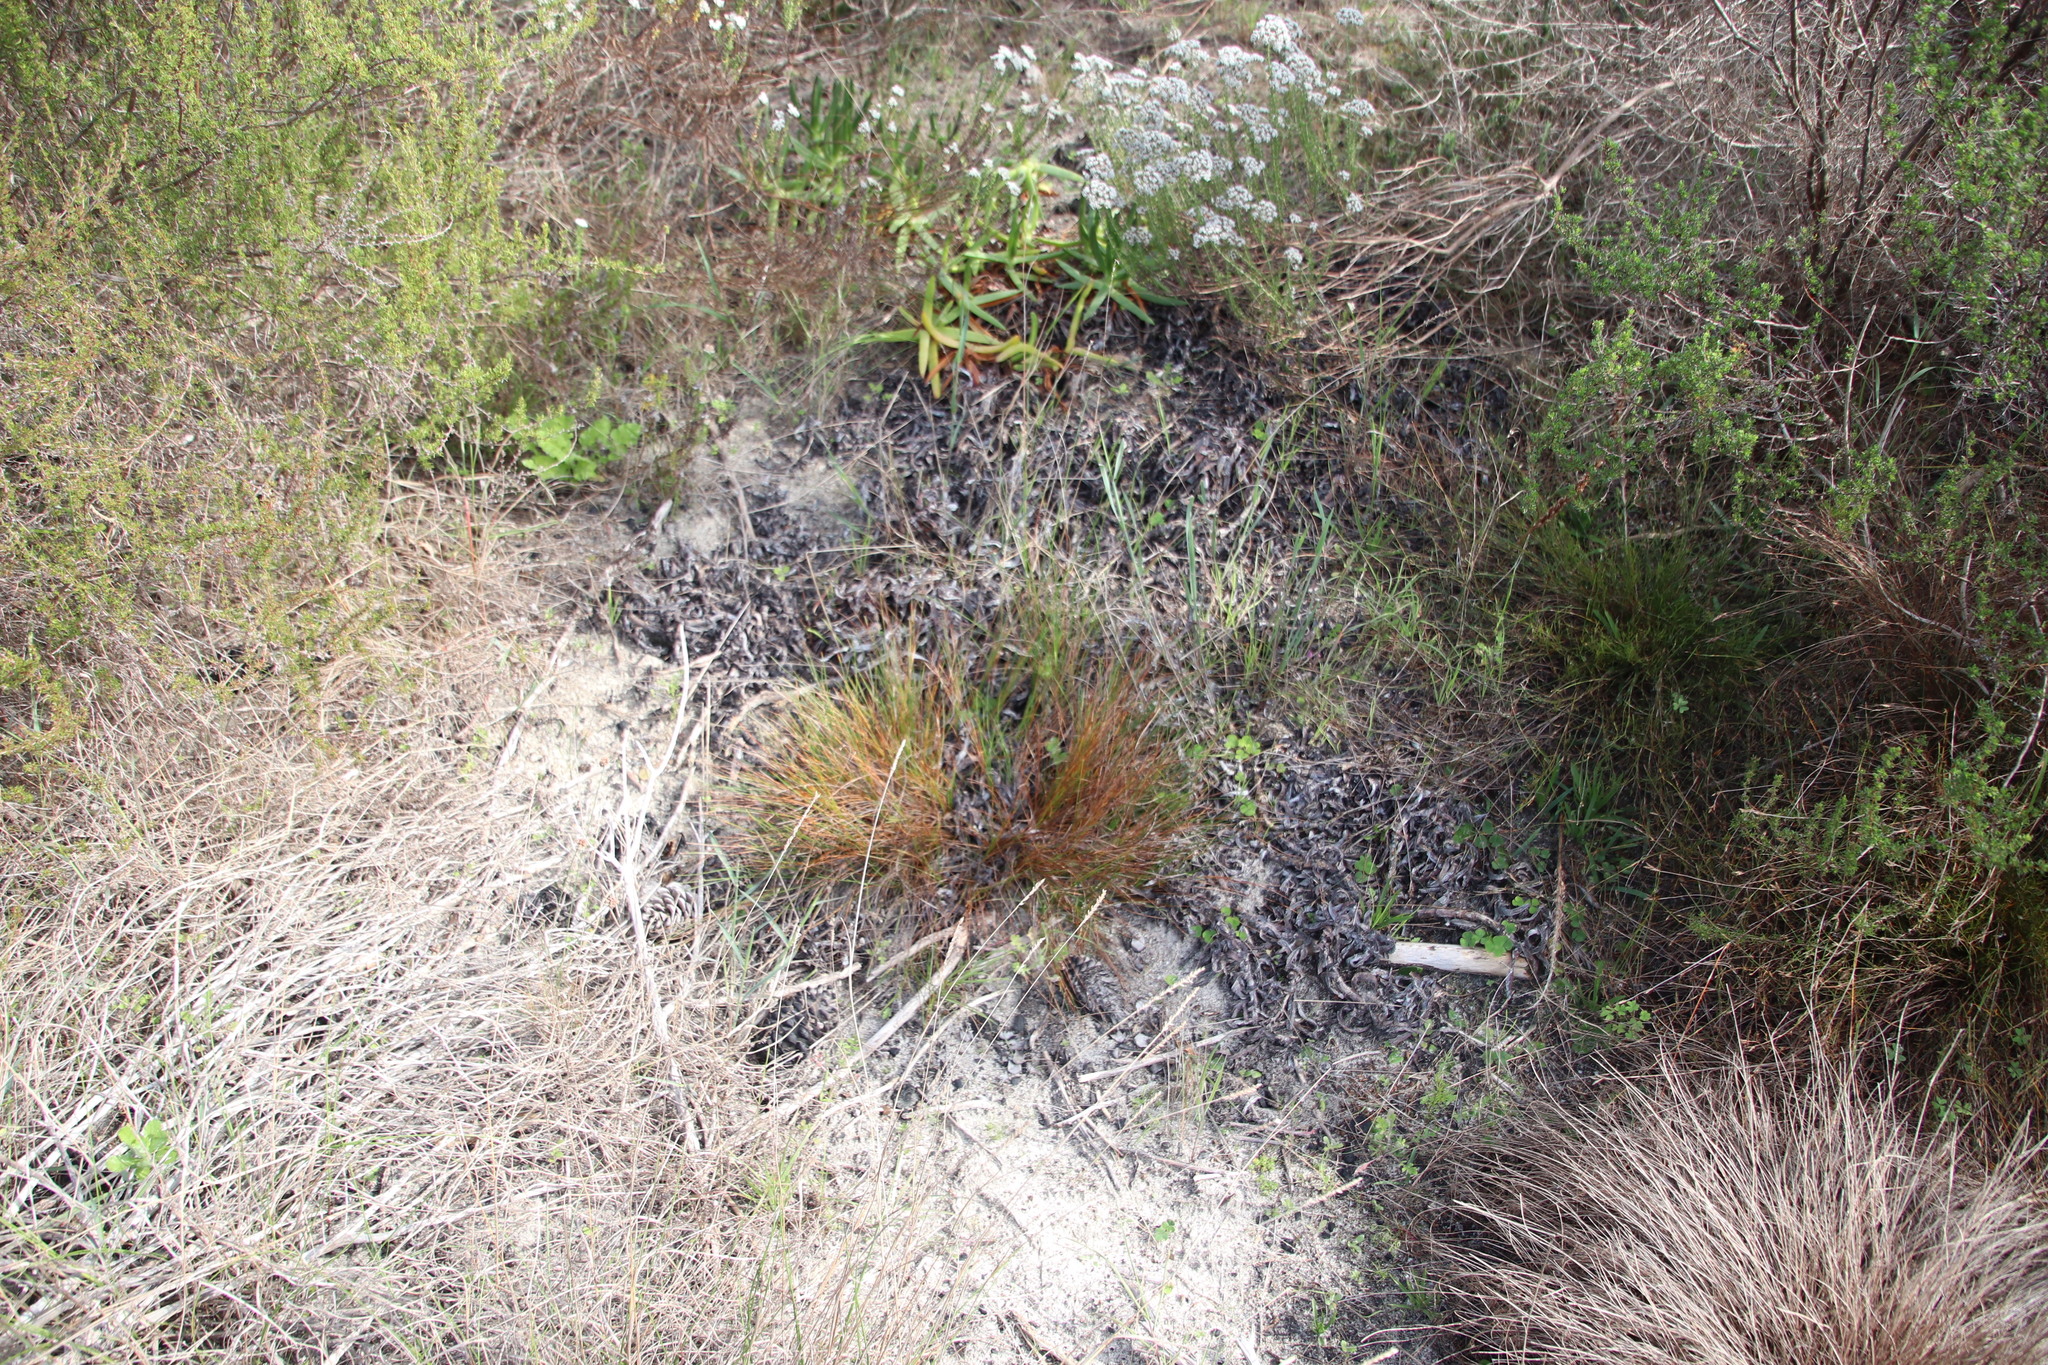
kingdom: Plantae
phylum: Tracheophyta
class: Liliopsida
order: Poales
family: Cyperaceae
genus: Ficinia
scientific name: Ficinia secunda
